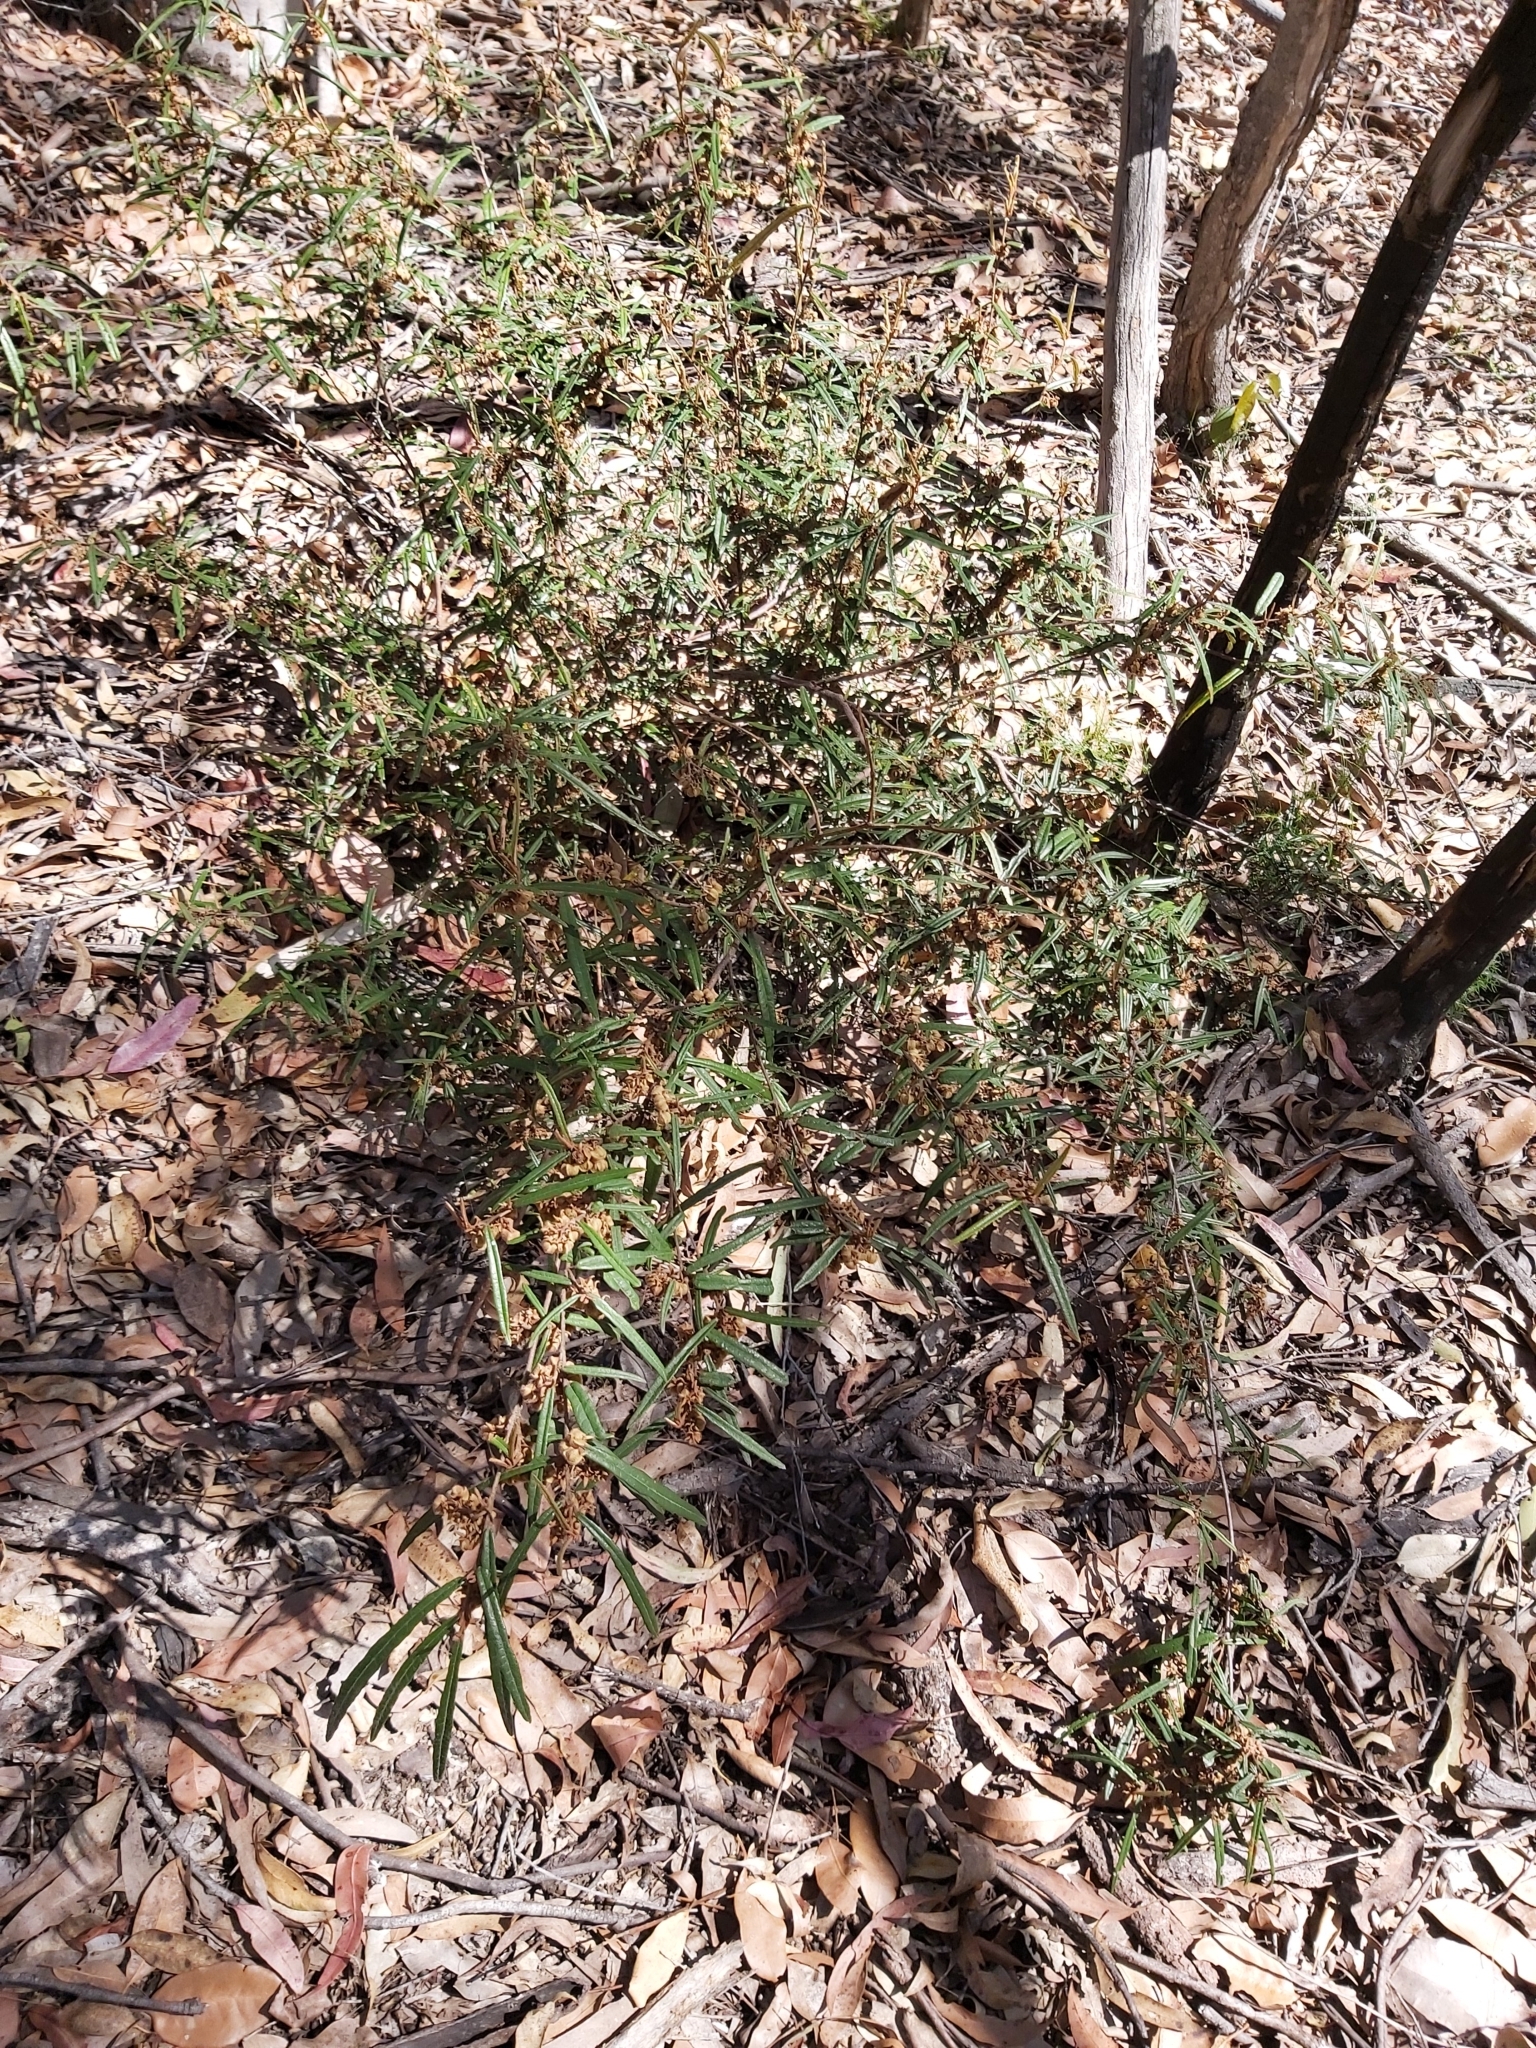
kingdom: Plantae
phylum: Tracheophyta
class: Magnoliopsida
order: Malvales
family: Malvaceae
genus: Lasiopetalum
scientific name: Lasiopetalum ferrugineum
